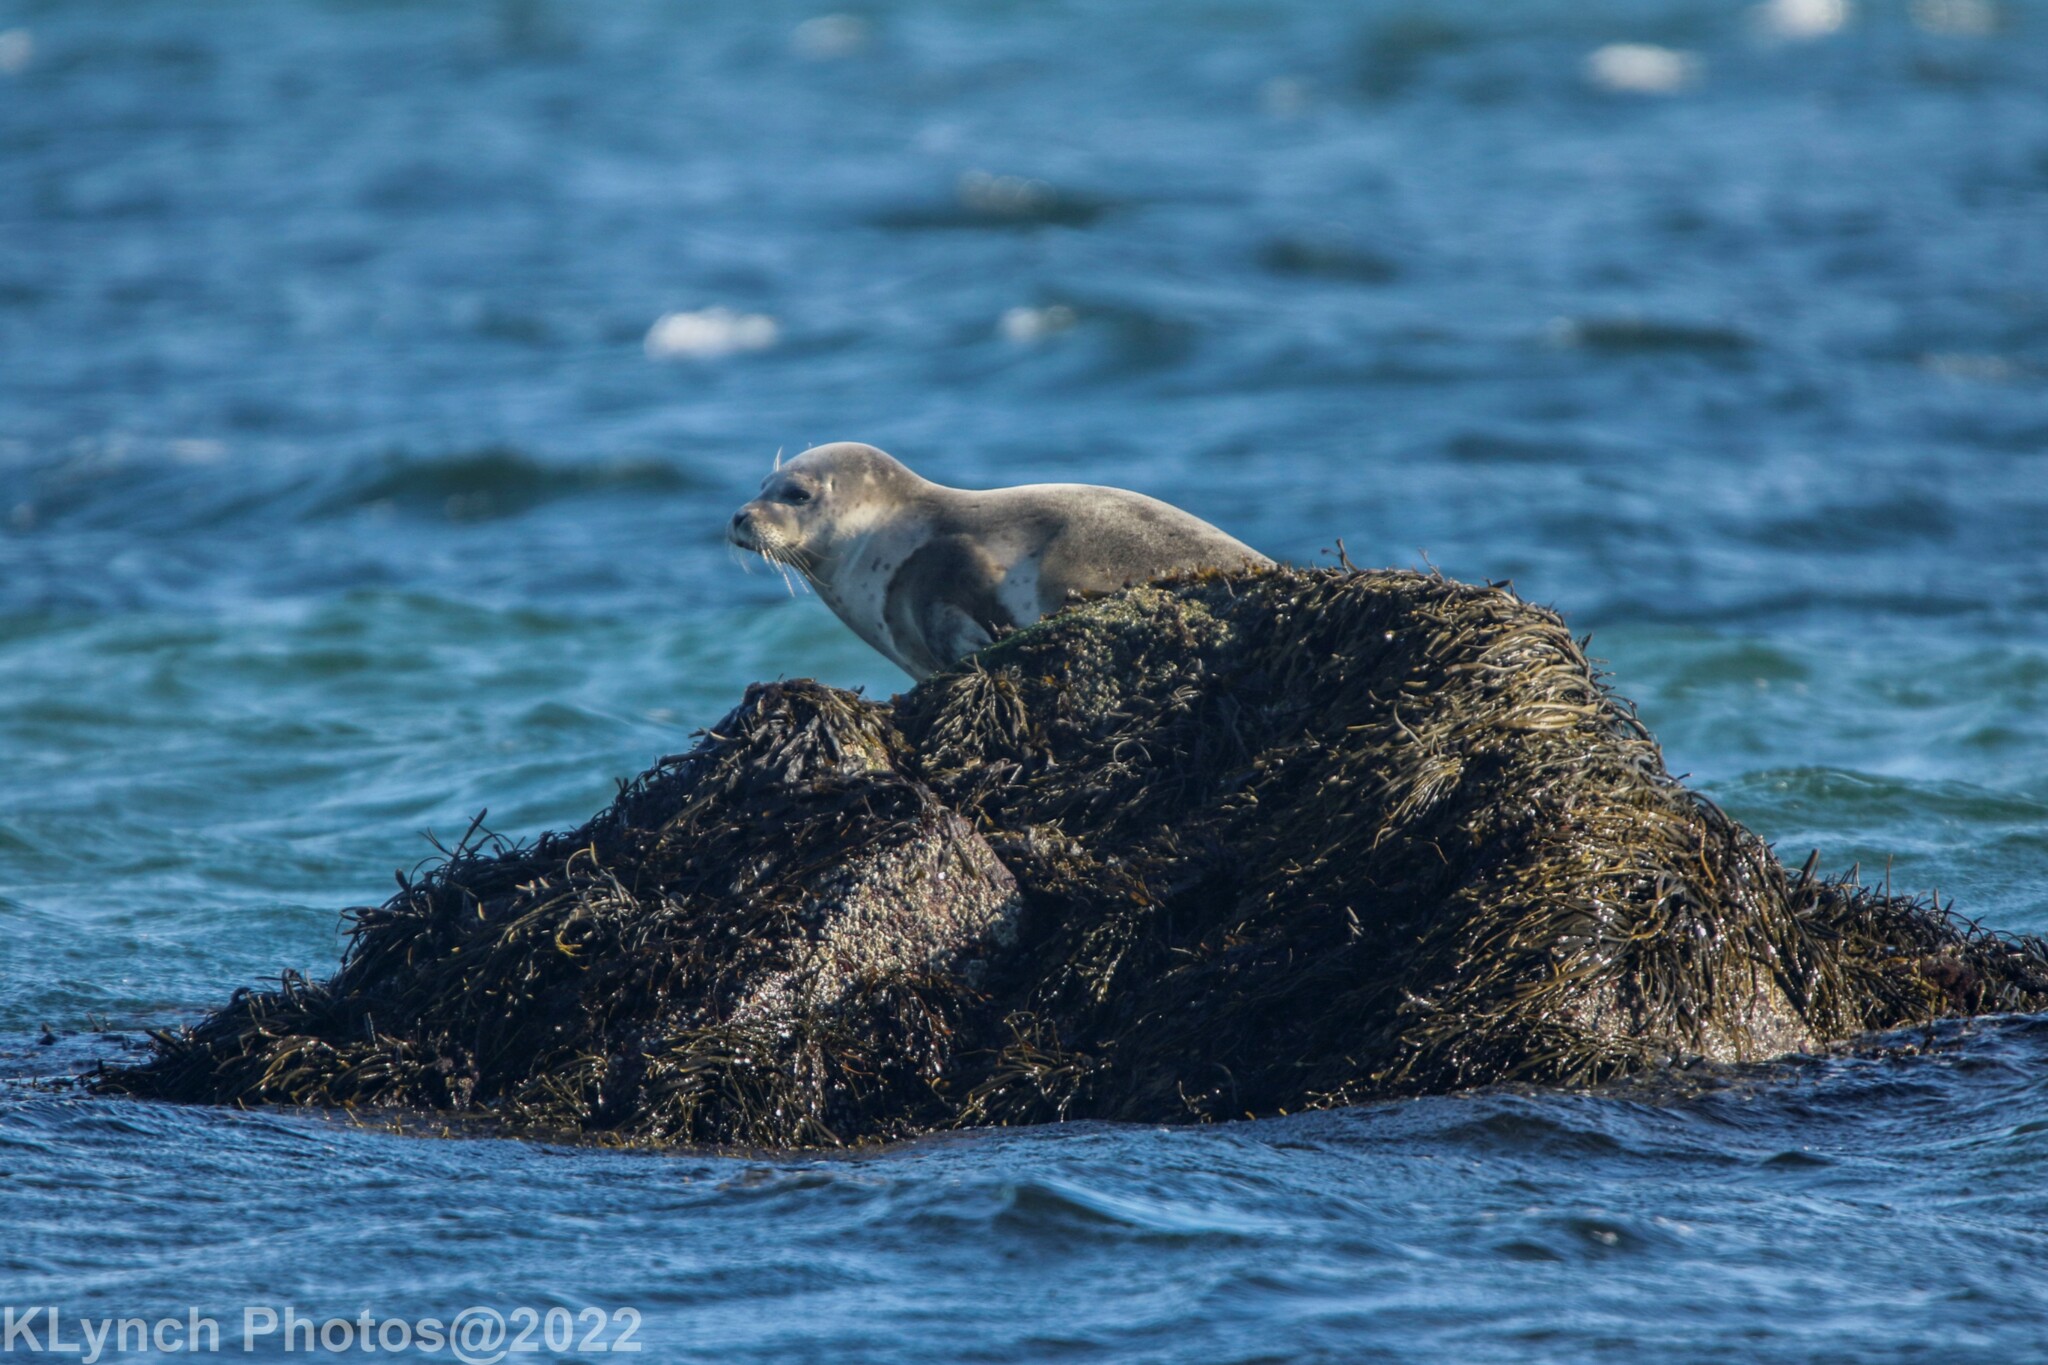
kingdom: Animalia
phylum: Chordata
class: Mammalia
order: Carnivora
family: Phocidae
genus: Phoca
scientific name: Phoca vitulina
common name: Harbor seal
